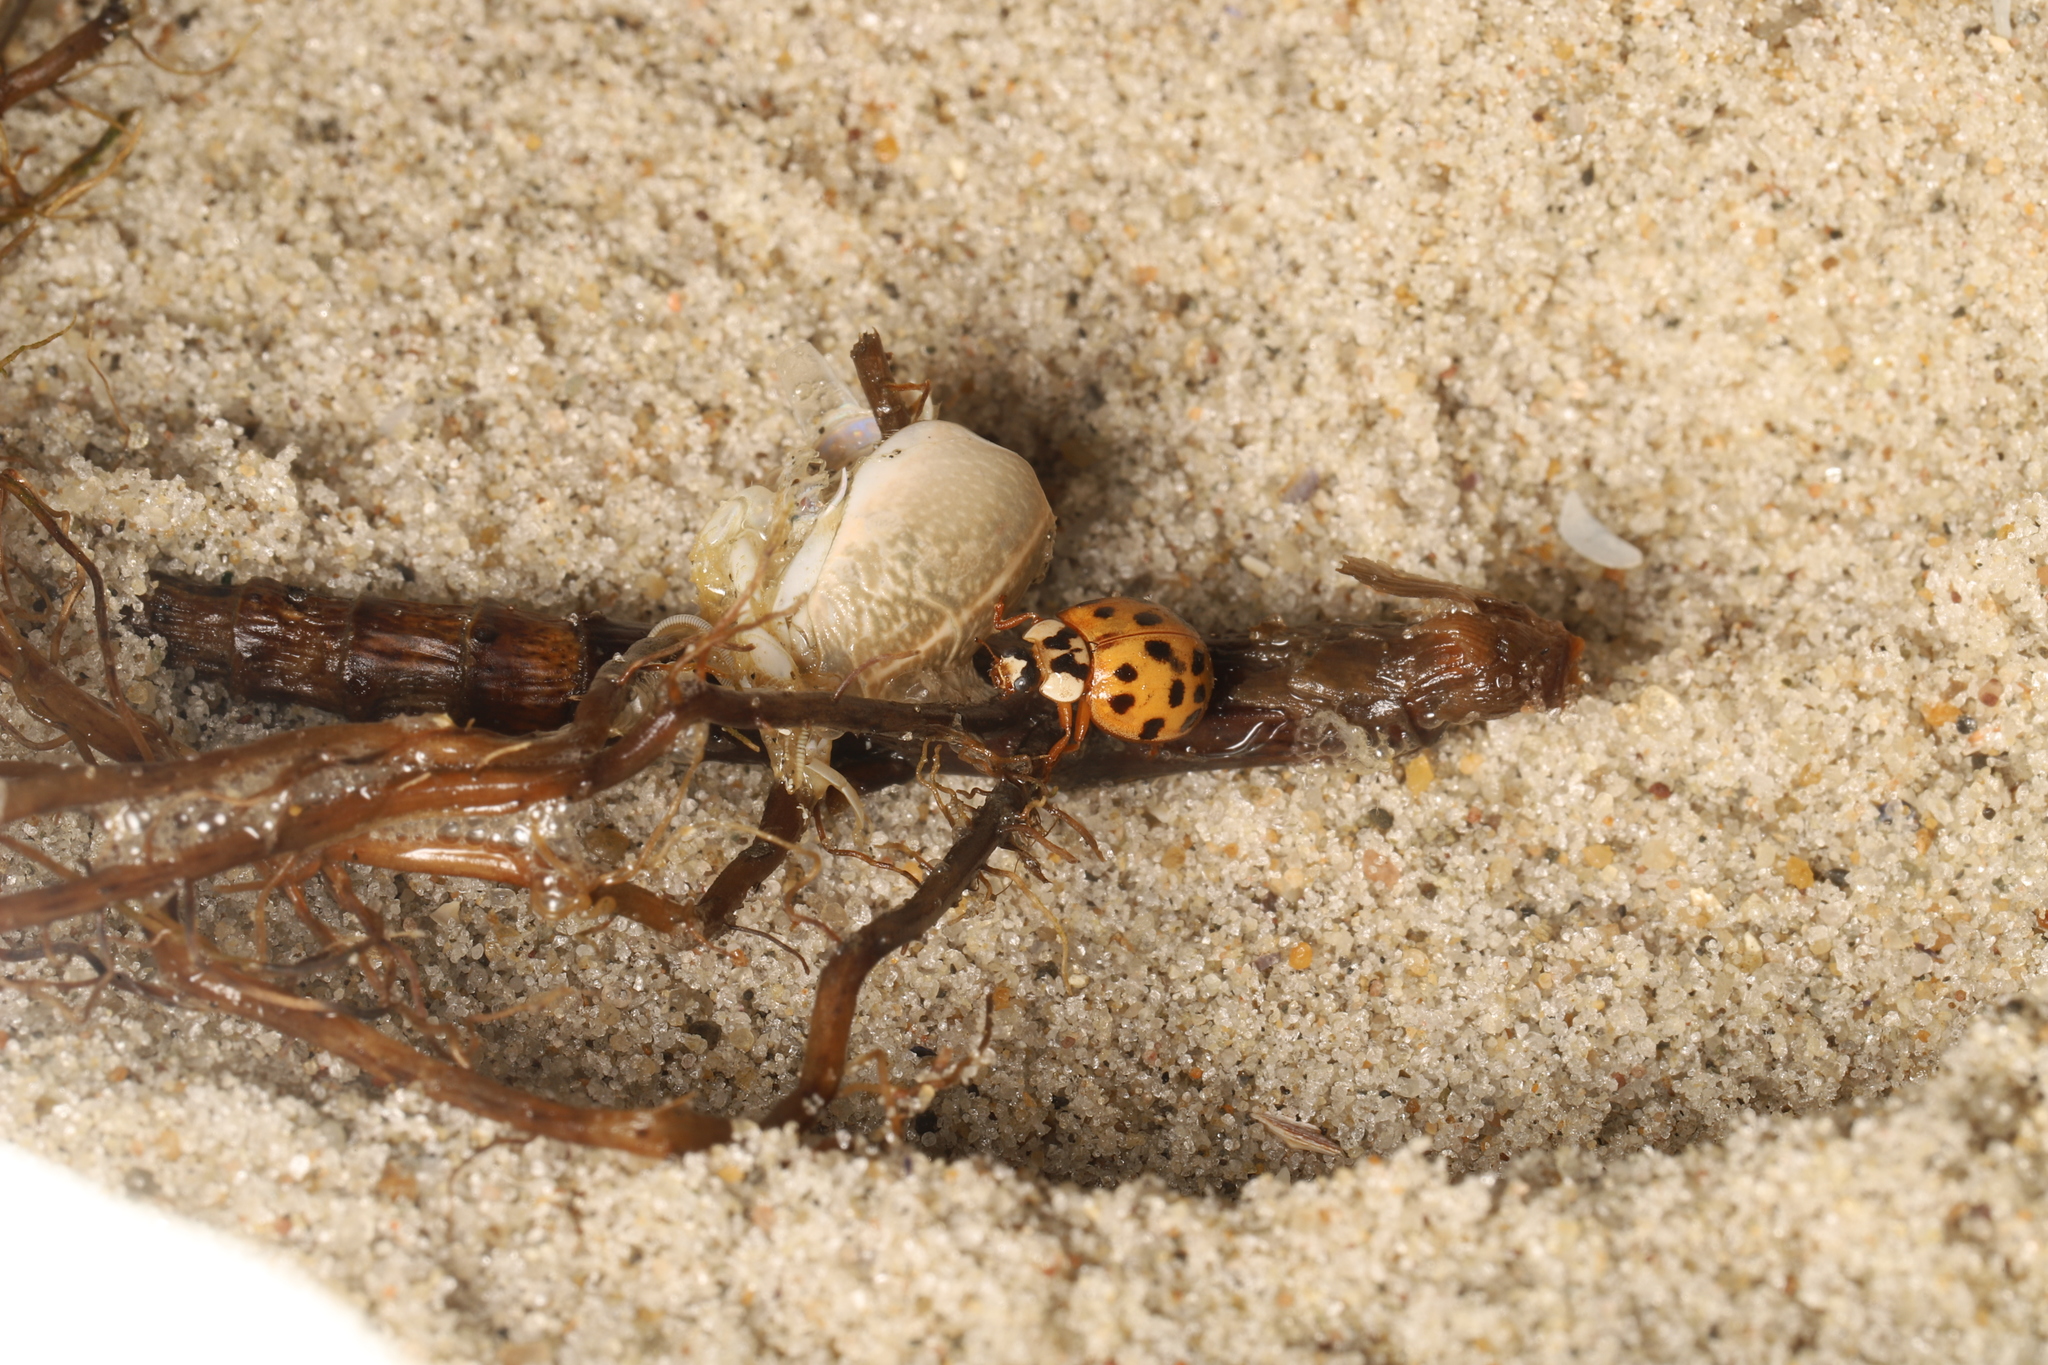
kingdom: Animalia
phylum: Arthropoda
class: Insecta
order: Coleoptera
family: Coccinellidae
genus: Harmonia
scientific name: Harmonia axyridis
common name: Harlequin ladybird
